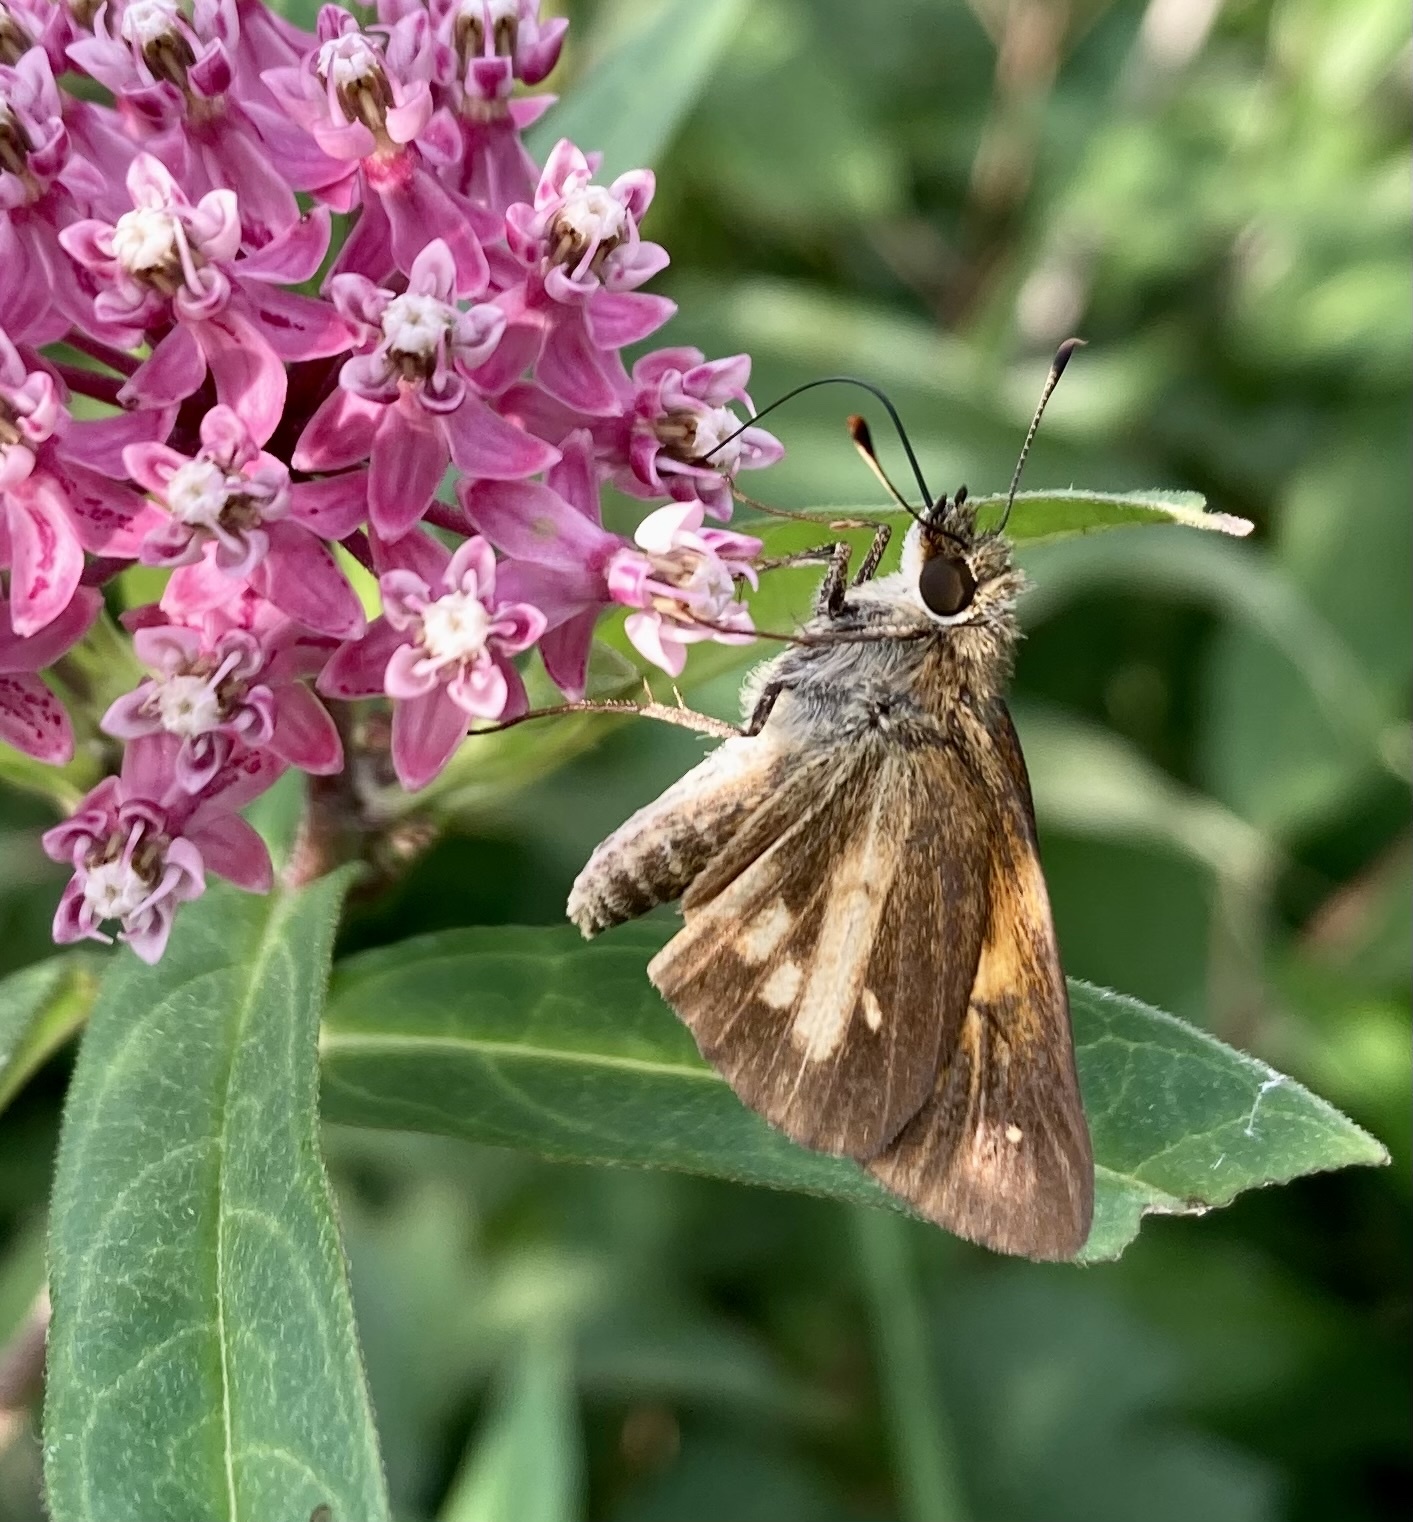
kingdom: Animalia
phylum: Arthropoda
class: Insecta
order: Lepidoptera
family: Hesperiidae
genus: Poanes
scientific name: Poanes viator
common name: Broad-winged skipper
